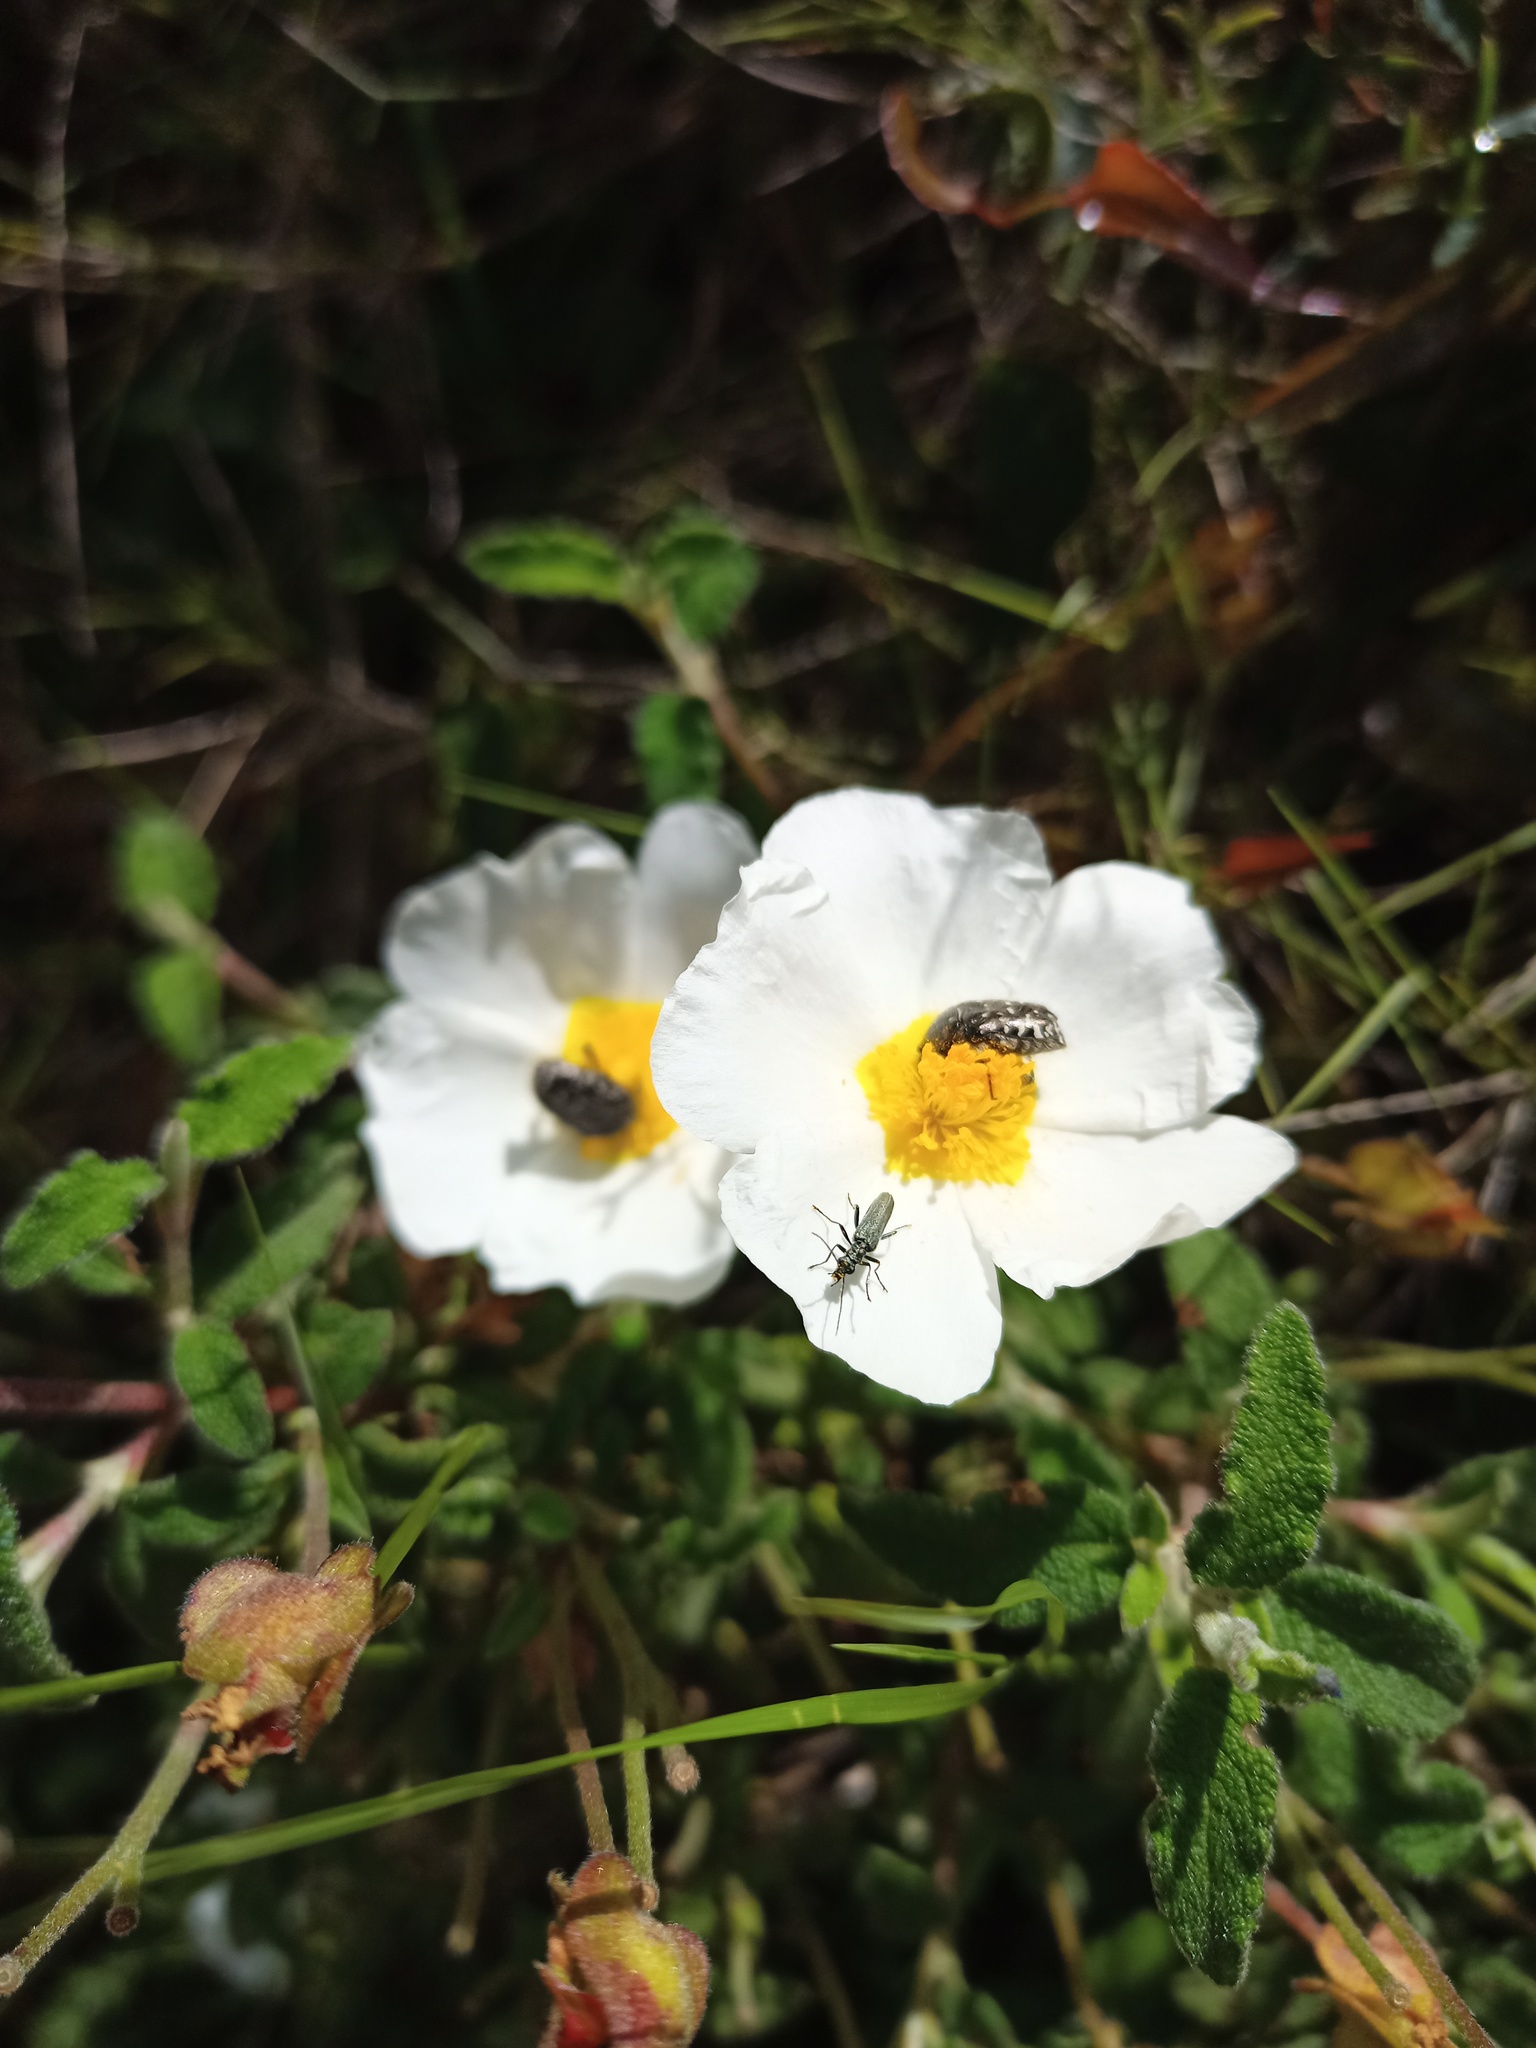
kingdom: Plantae
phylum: Tracheophyta
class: Magnoliopsida
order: Malvales
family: Cistaceae
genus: Cistus
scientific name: Cistus salviifolius
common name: Salvia cistus
